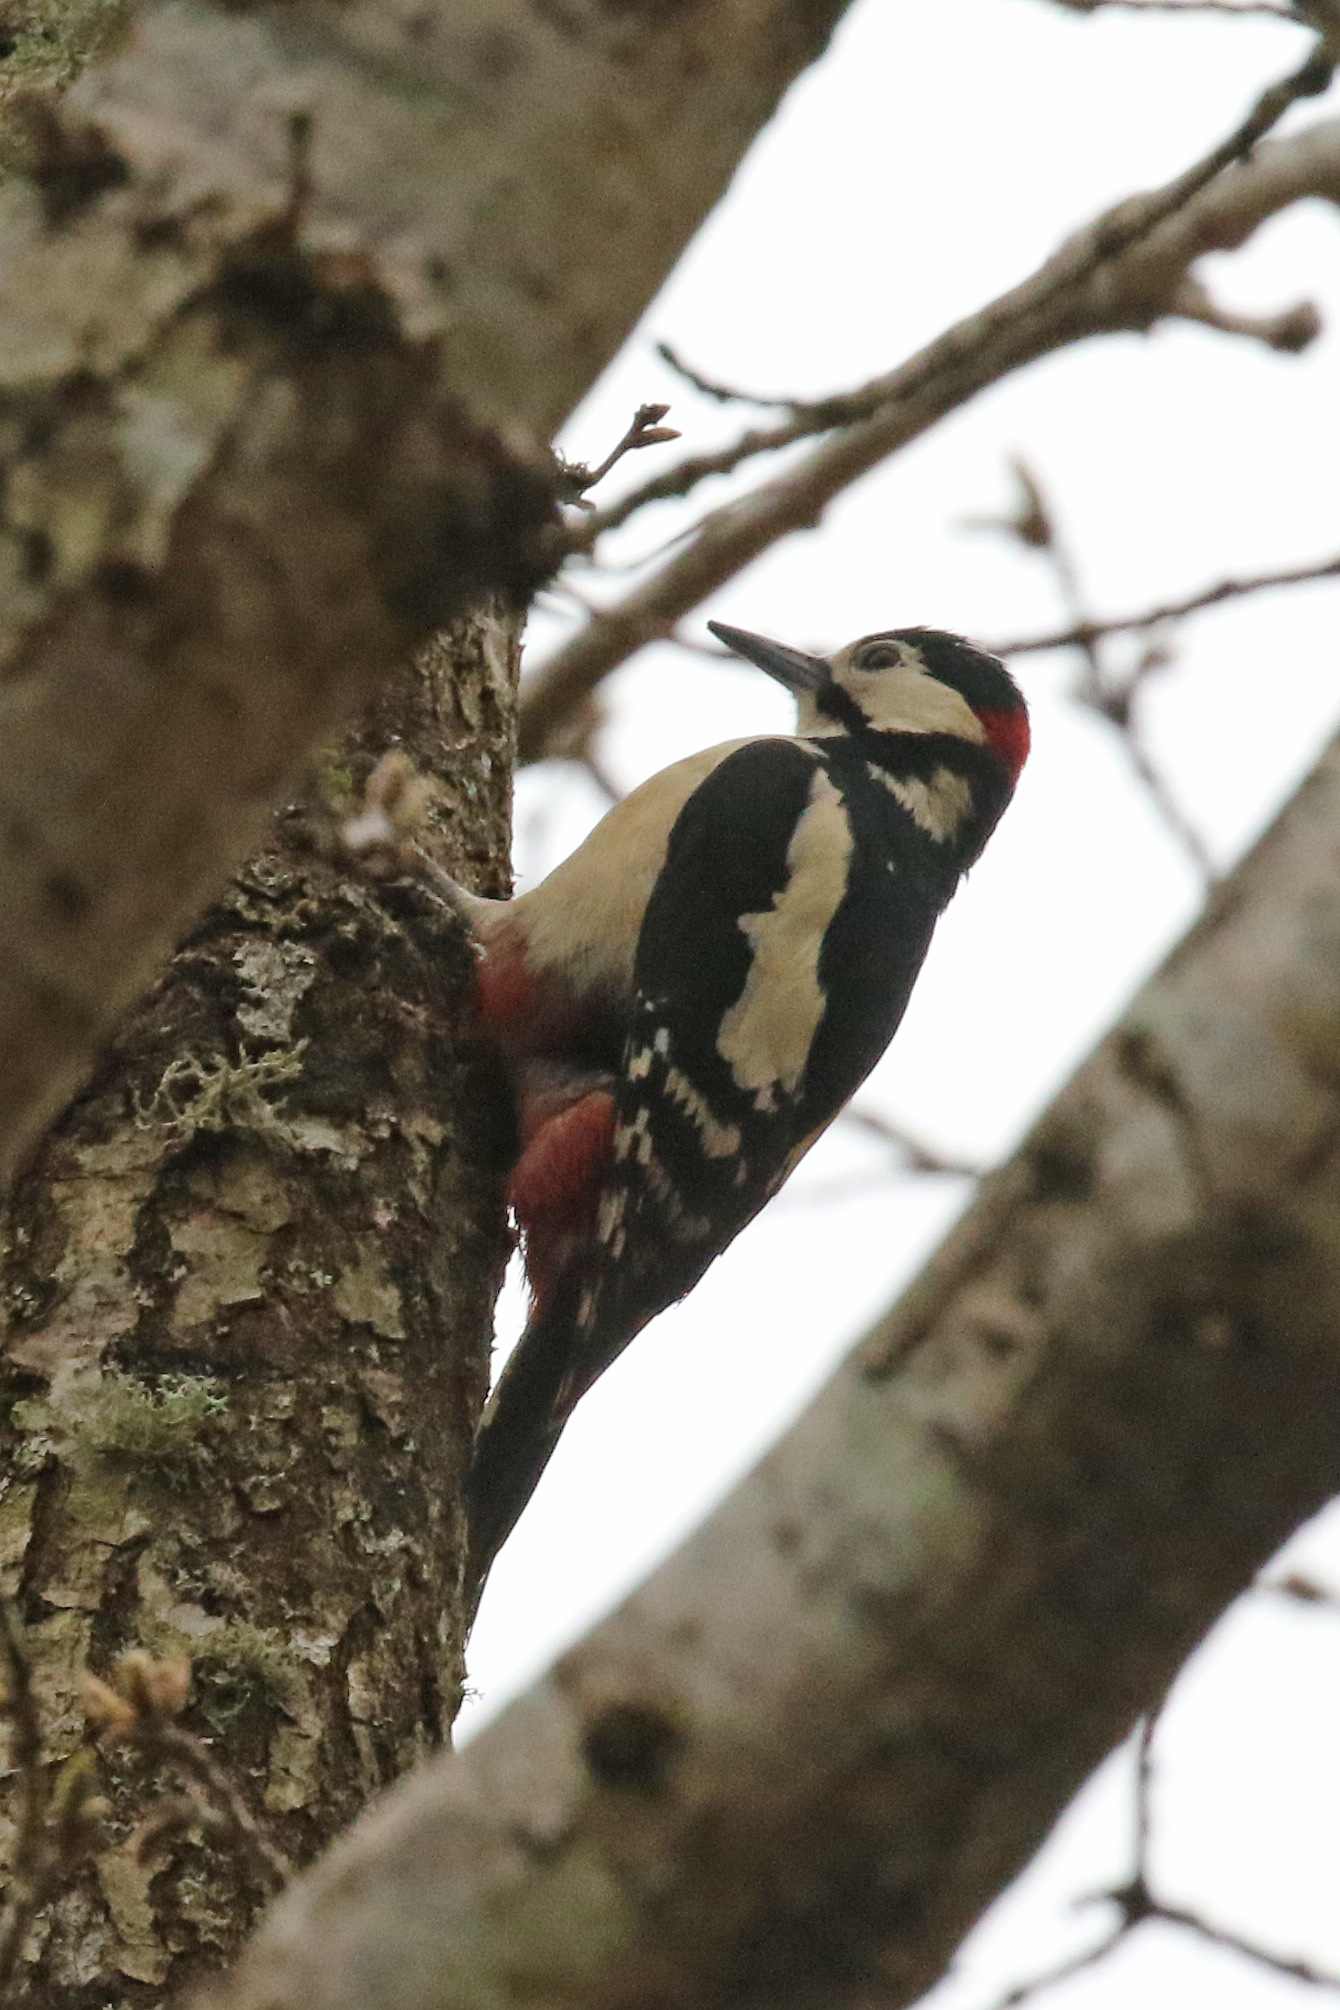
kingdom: Animalia
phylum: Chordata
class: Aves
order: Piciformes
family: Picidae
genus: Dendrocopos
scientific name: Dendrocopos major
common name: Great spotted woodpecker
